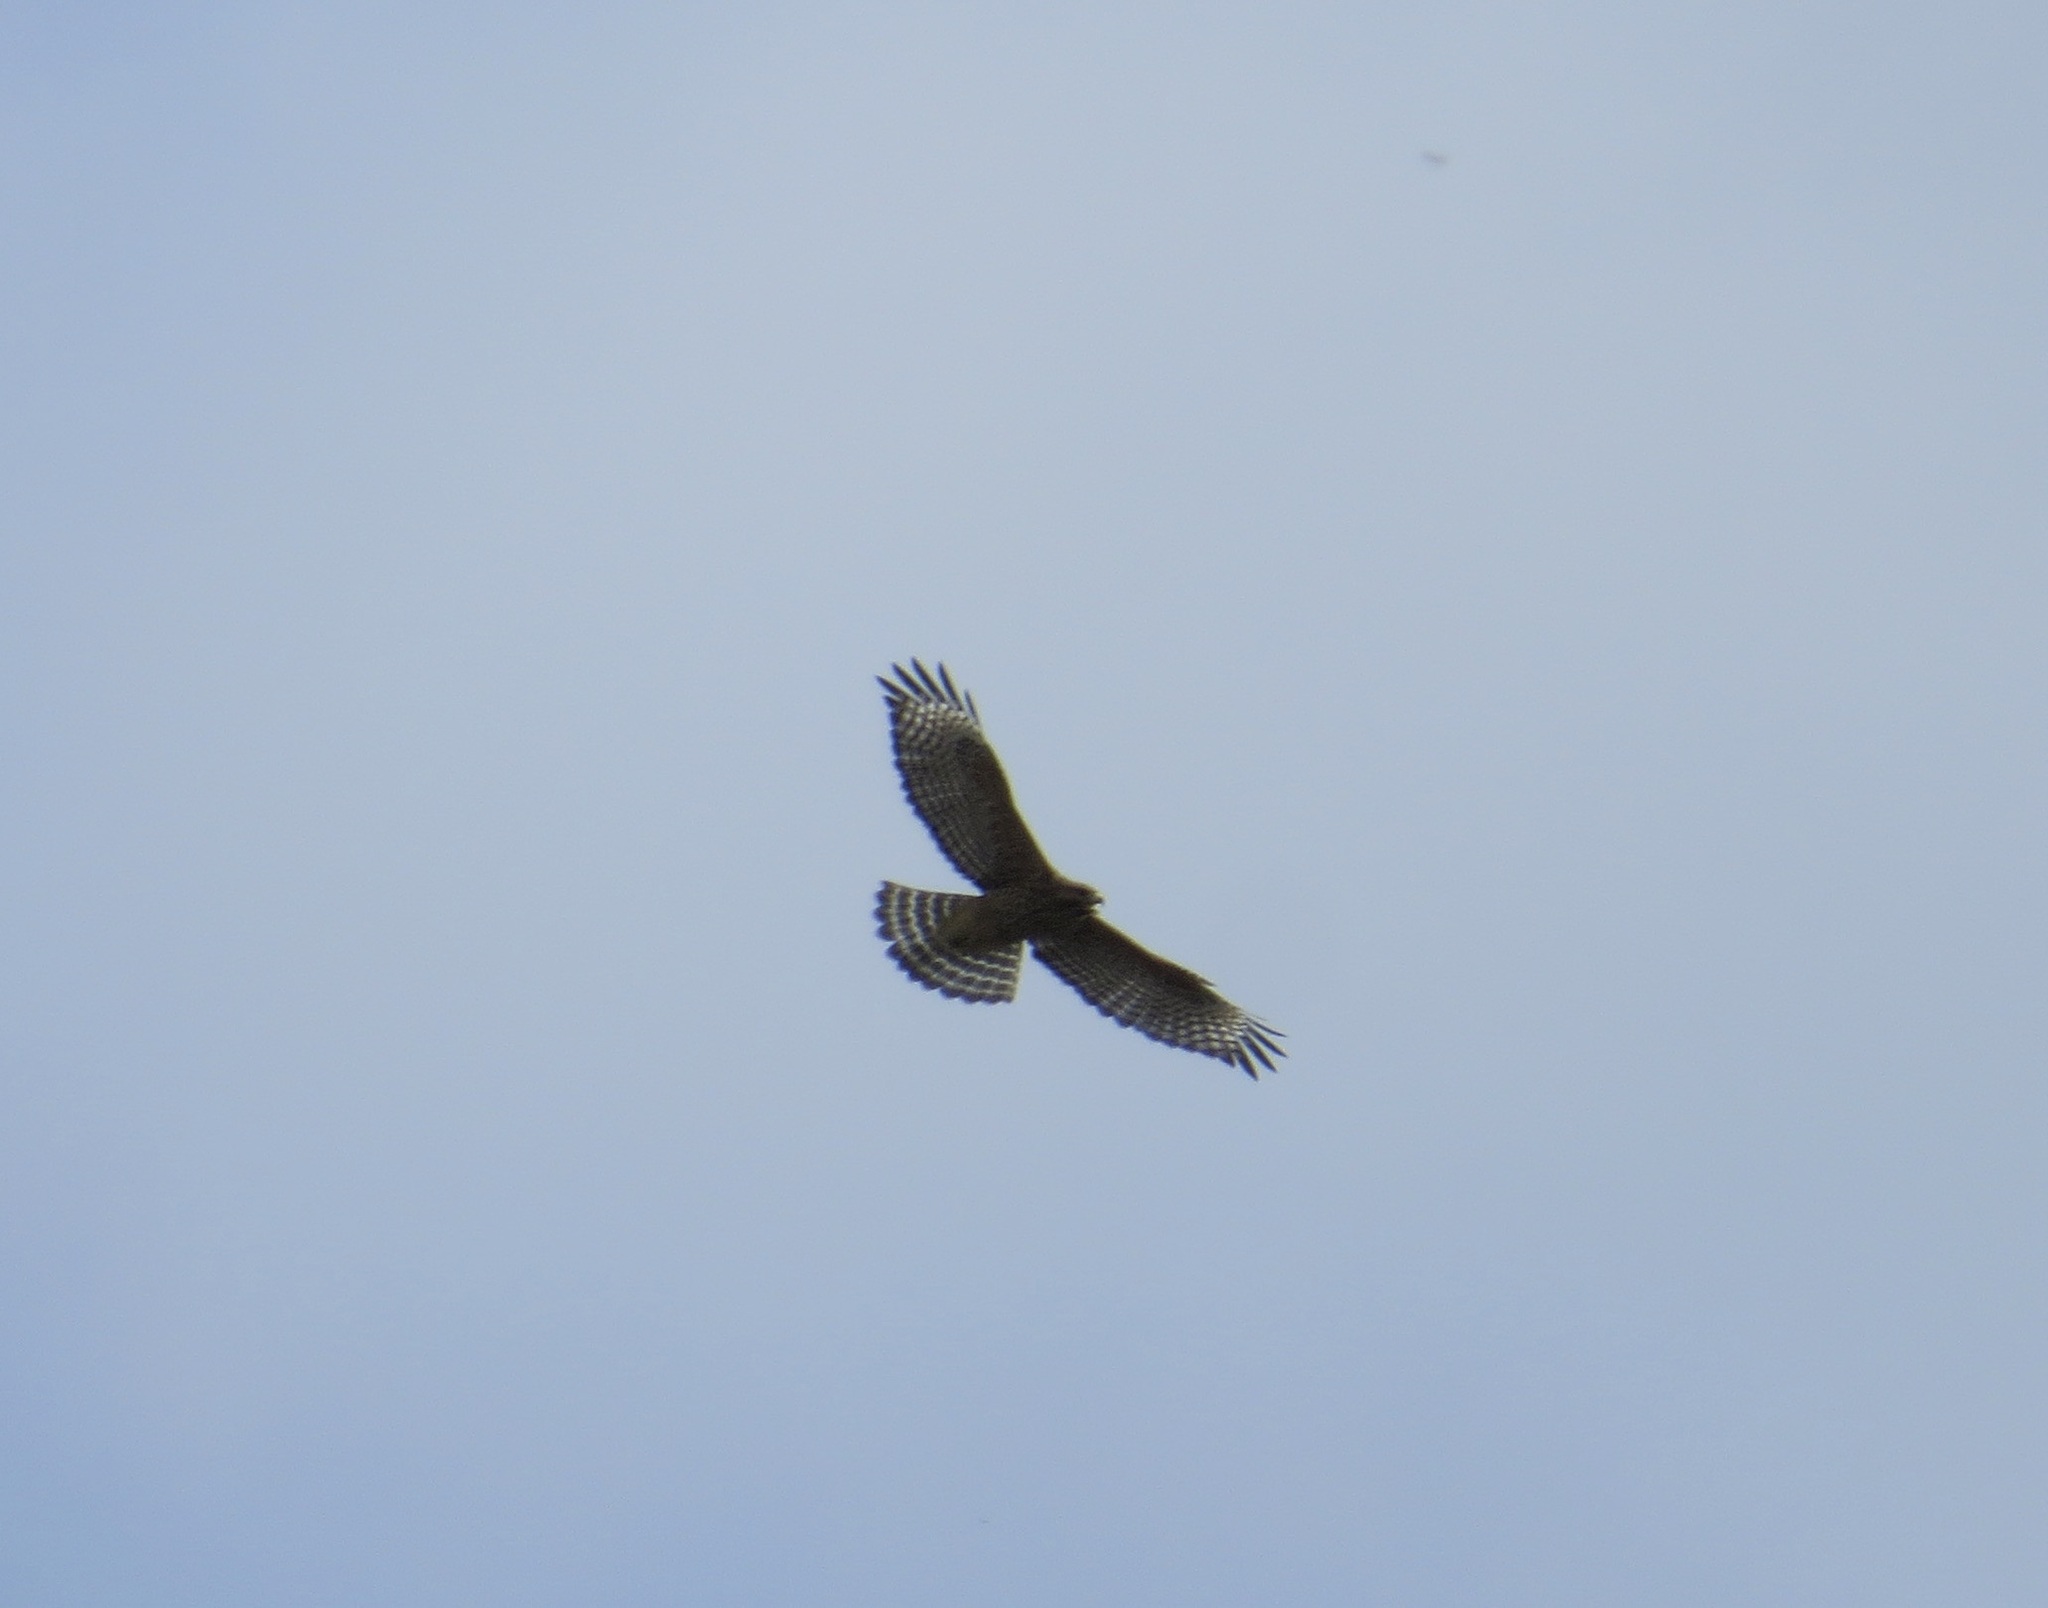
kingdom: Animalia
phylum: Chordata
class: Aves
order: Accipitriformes
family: Accipitridae
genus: Buteo
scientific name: Buteo lineatus
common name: Red-shouldered hawk
